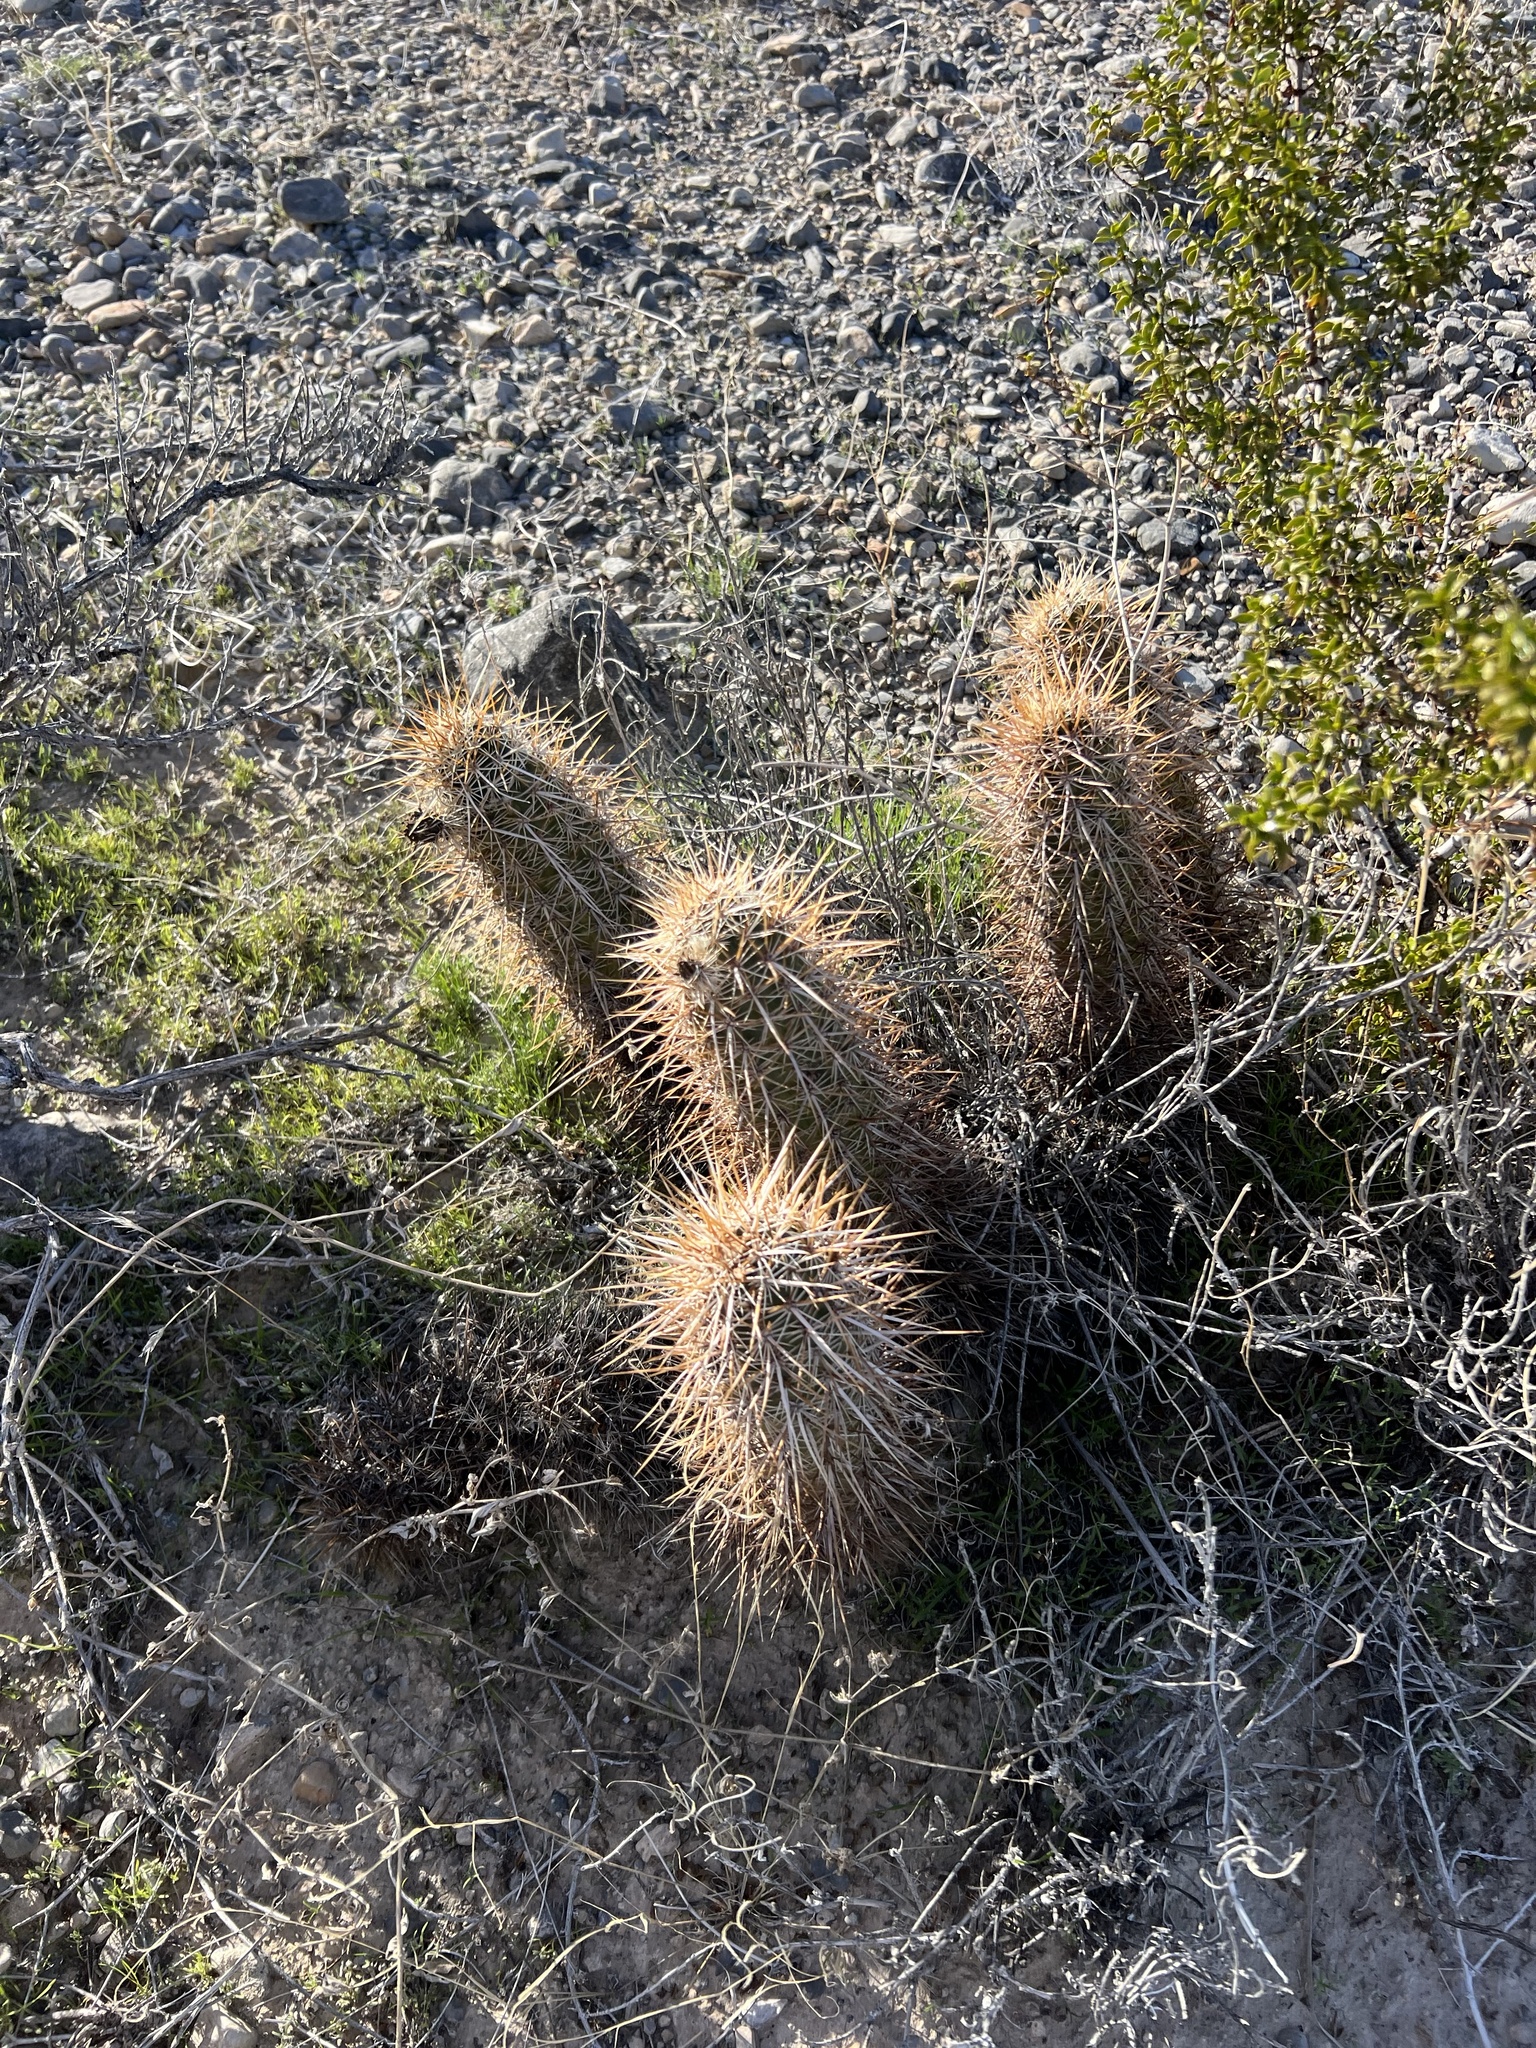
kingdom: Plantae
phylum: Tracheophyta
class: Magnoliopsida
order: Caryophyllales
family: Cactaceae
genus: Echinocereus
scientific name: Echinocereus engelmannii
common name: Engelmann's hedgehog cactus
